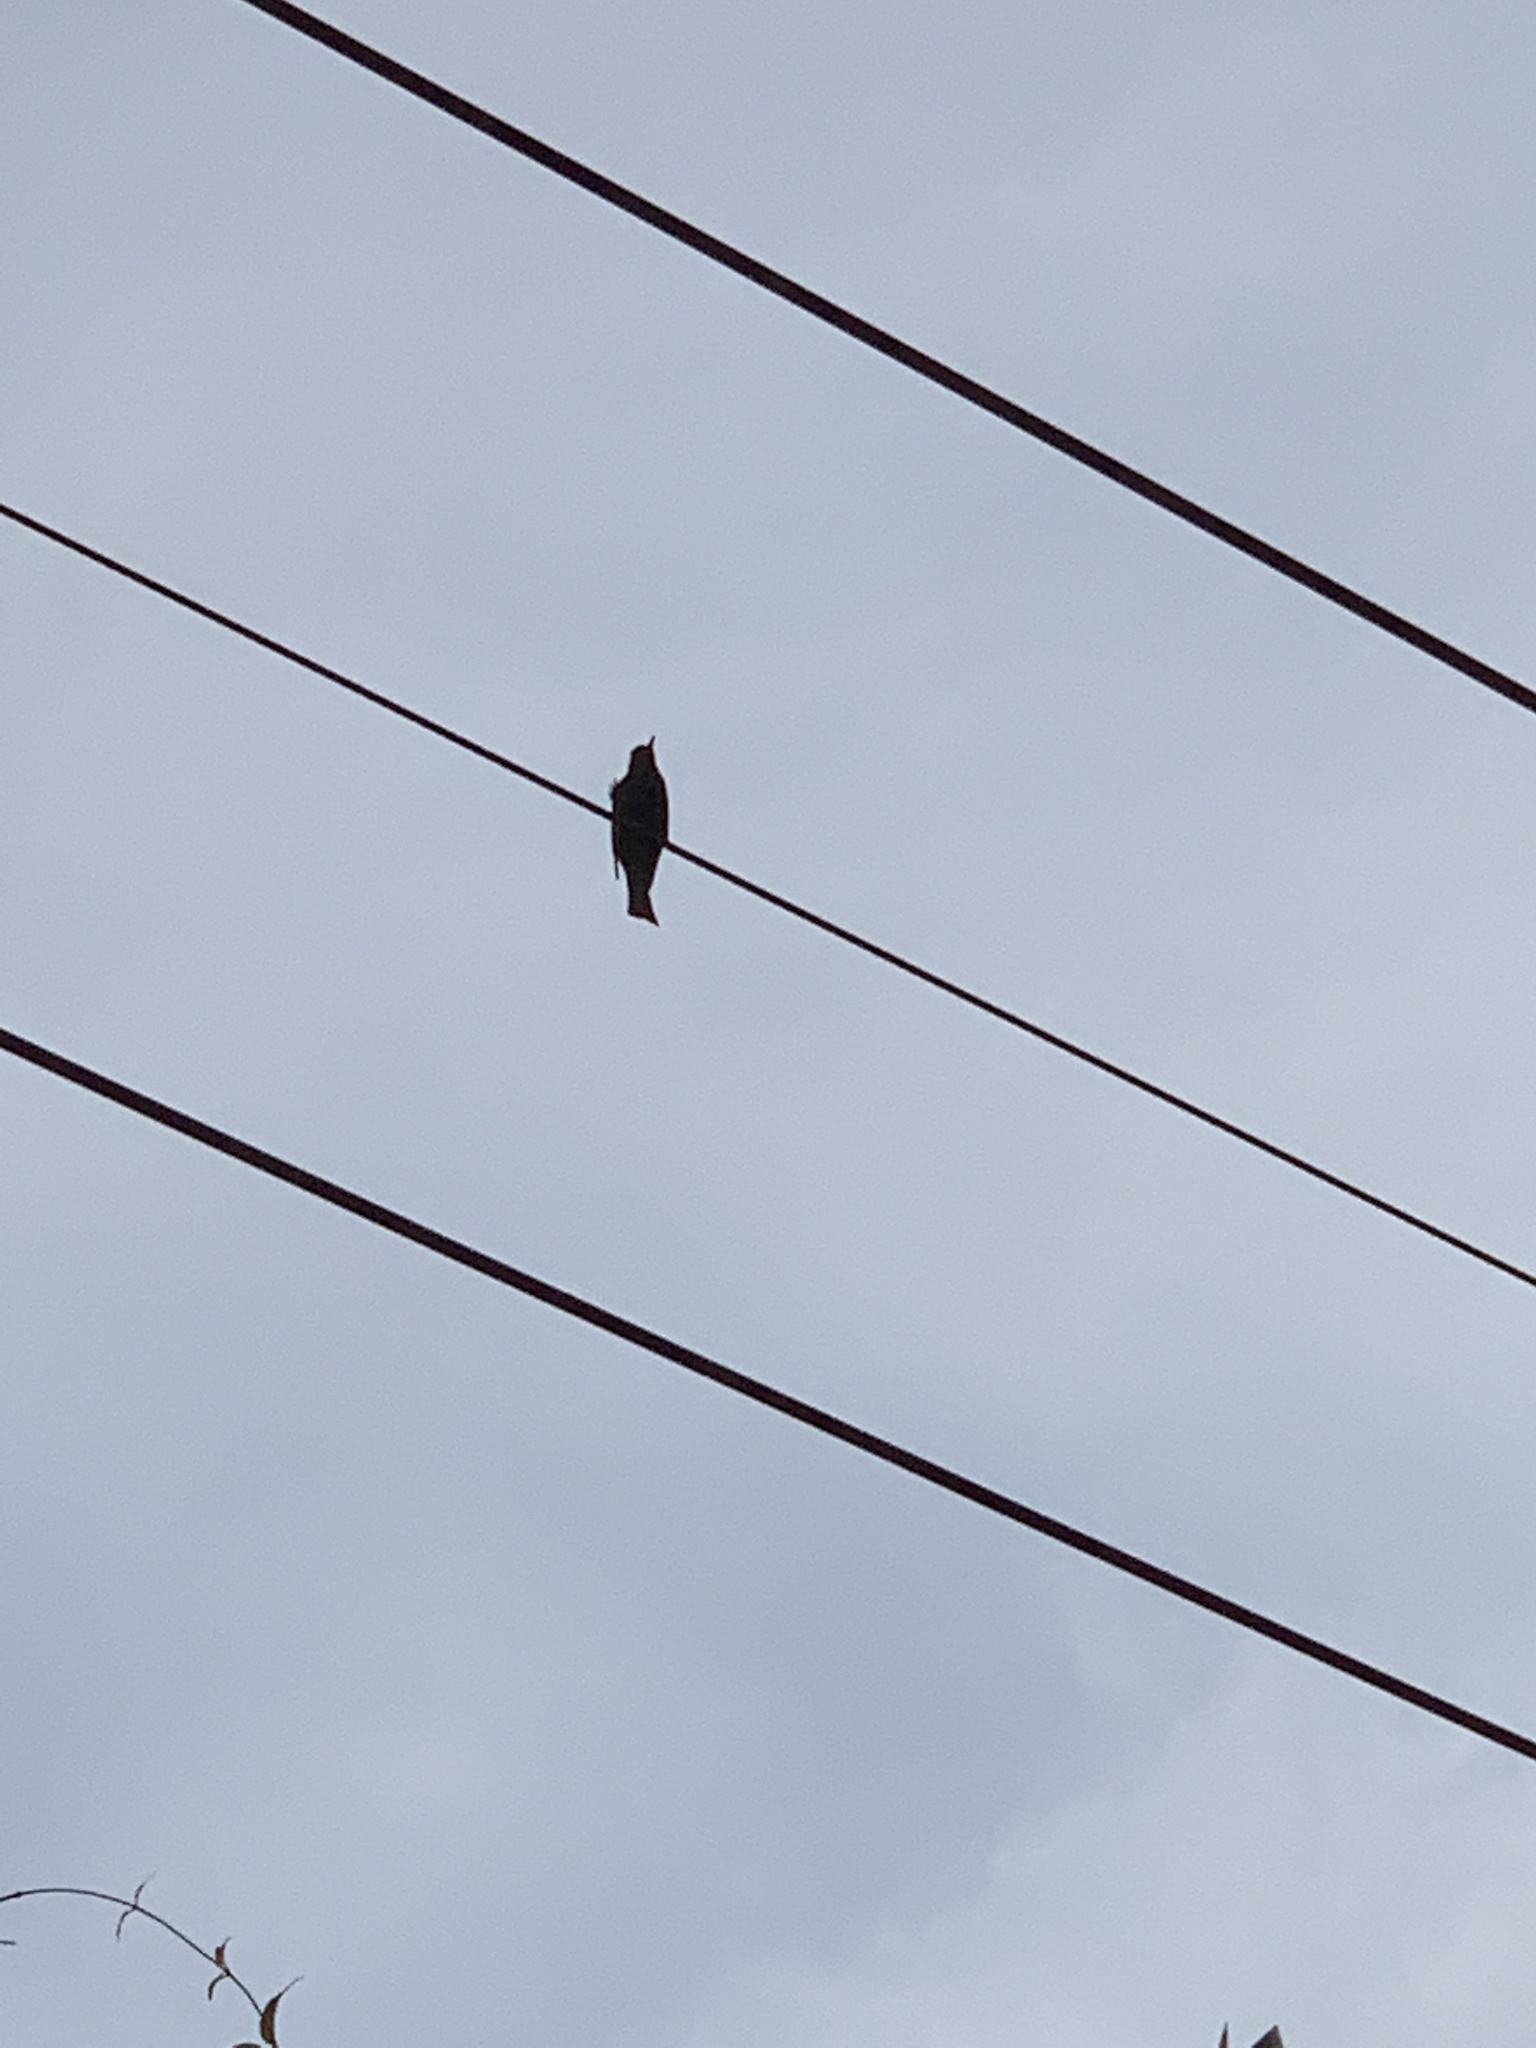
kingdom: Animalia
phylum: Chordata
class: Aves
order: Passeriformes
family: Pycnonotidae
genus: Hypsipetes
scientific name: Hypsipetes leucocephalus
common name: Black bulbul
